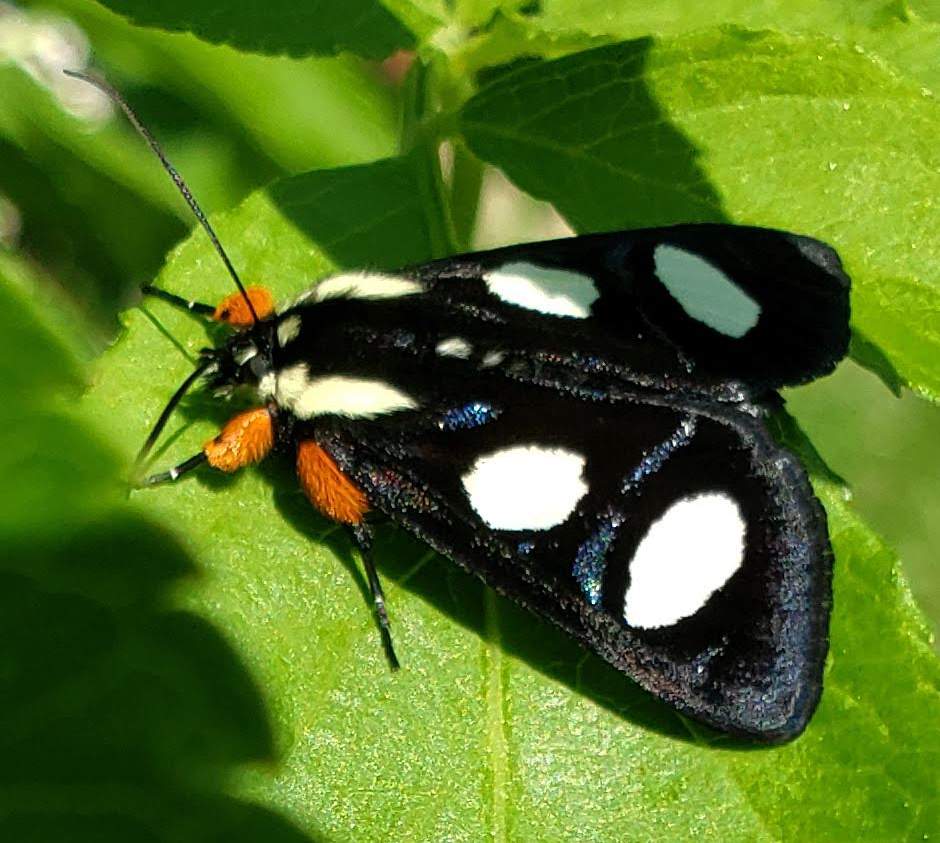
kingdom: Animalia
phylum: Arthropoda
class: Insecta
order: Lepidoptera
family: Noctuidae
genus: Alypia
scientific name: Alypia octomaculata
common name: Eight-spotted forester
